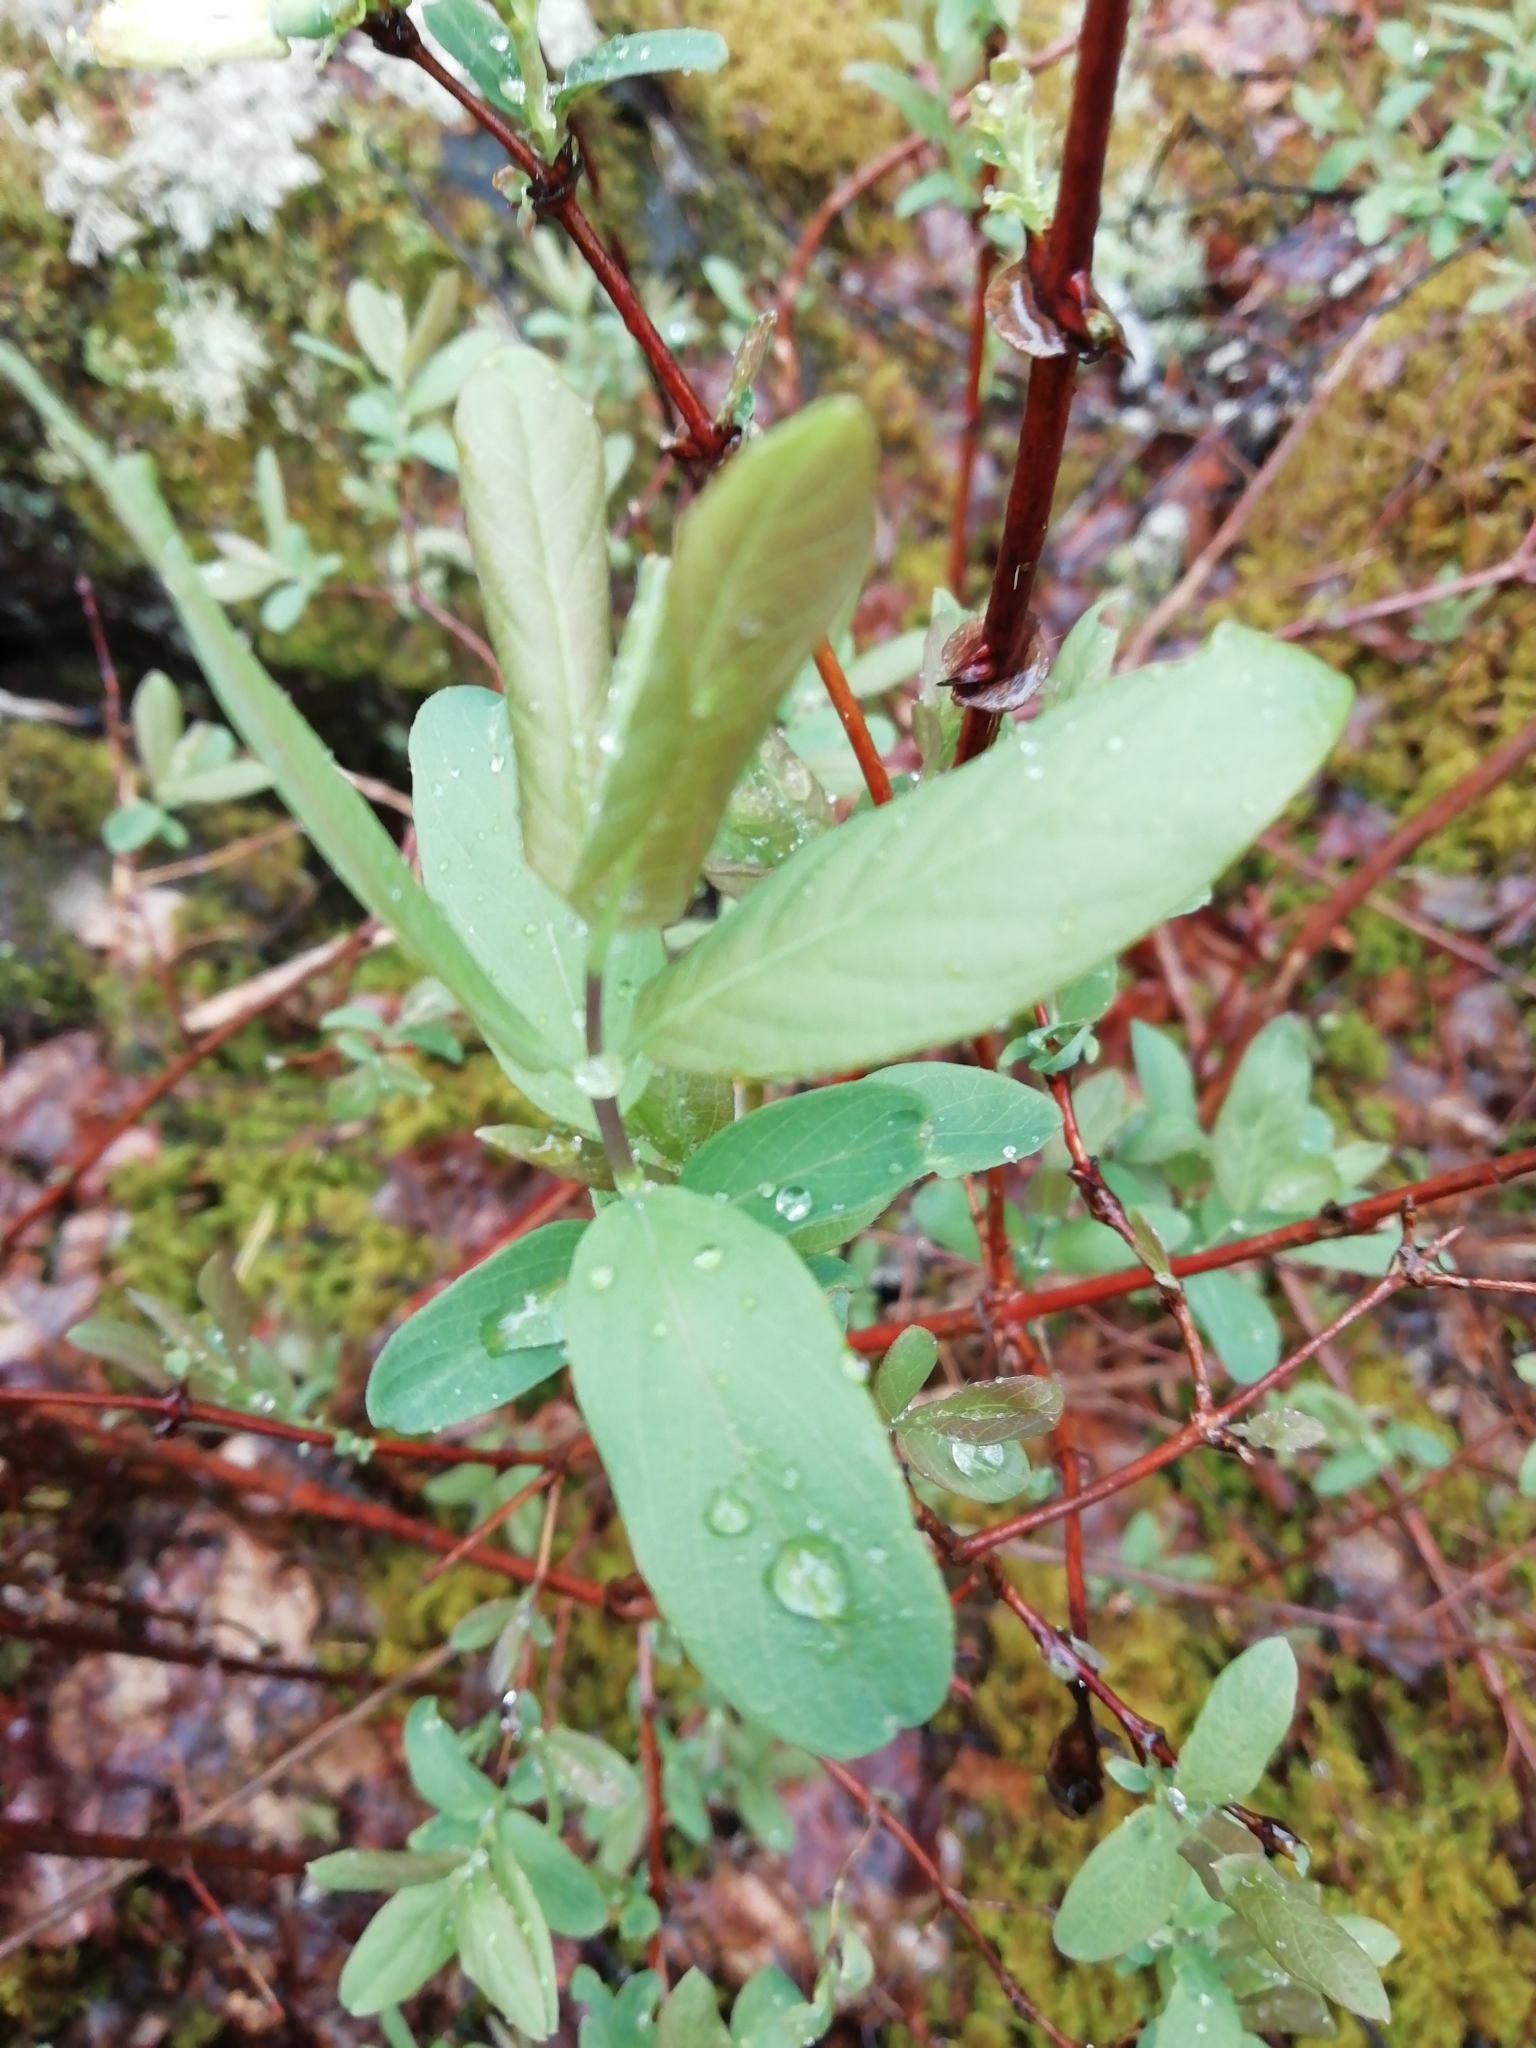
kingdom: Plantae
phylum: Tracheophyta
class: Magnoliopsida
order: Dipsacales
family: Caprifoliaceae
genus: Lonicera
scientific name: Lonicera caerulea
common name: Blue honeysuckle
